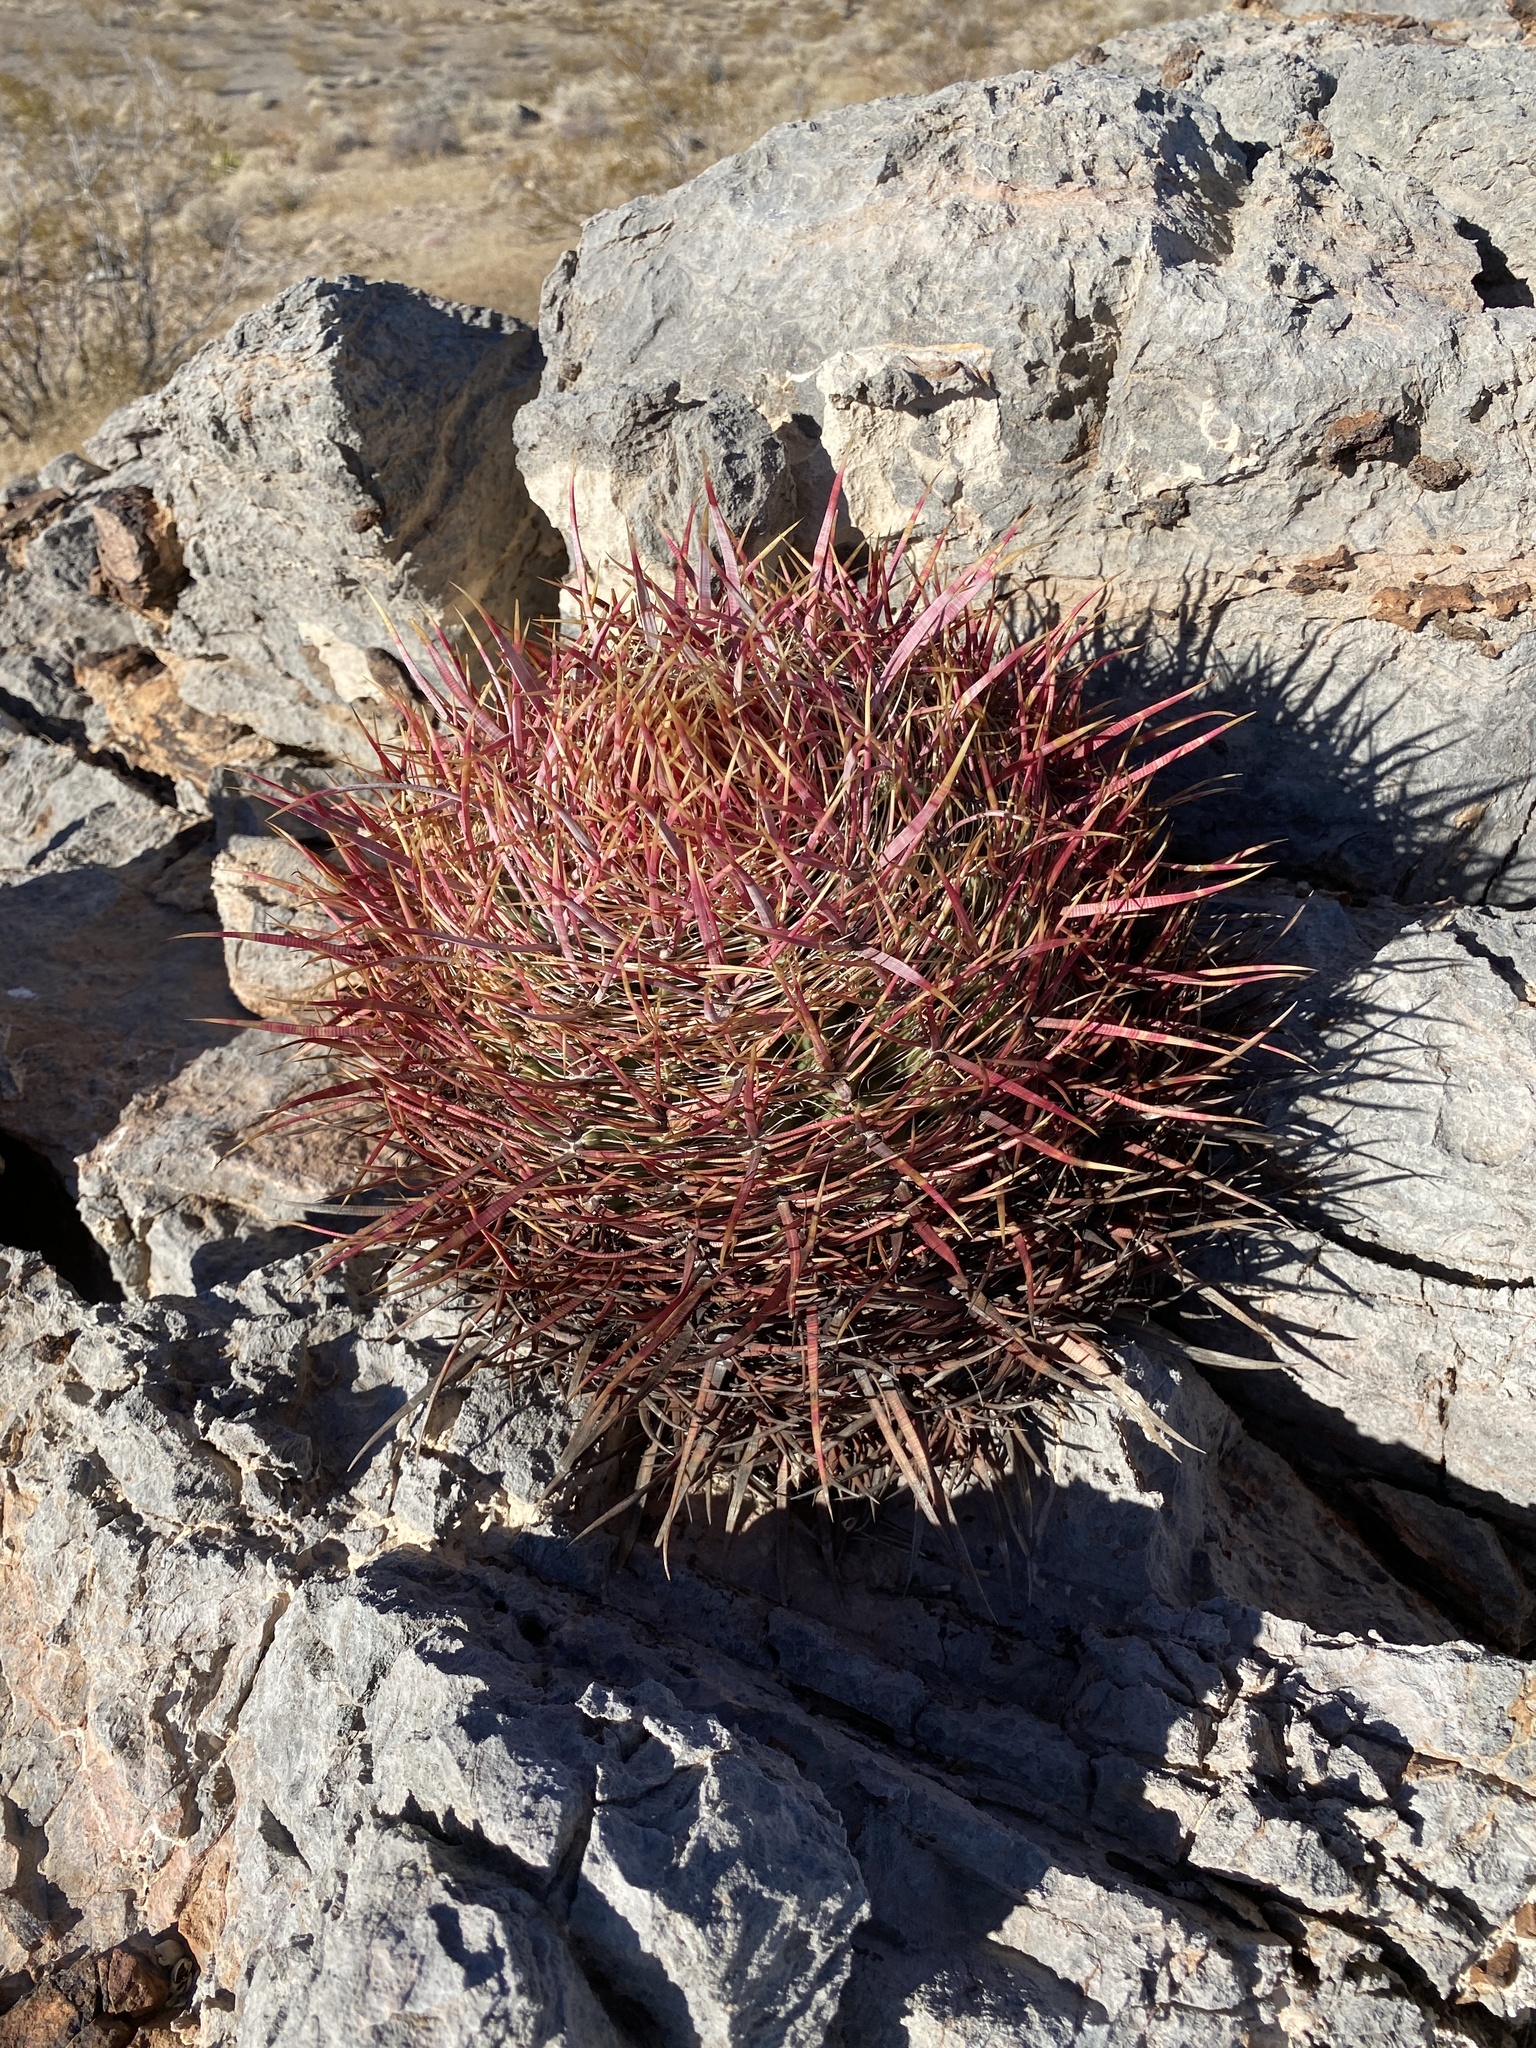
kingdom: Plantae
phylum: Tracheophyta
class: Magnoliopsida
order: Caryophyllales
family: Cactaceae
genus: Ferocactus
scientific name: Ferocactus cylindraceus
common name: California barrel cactus
